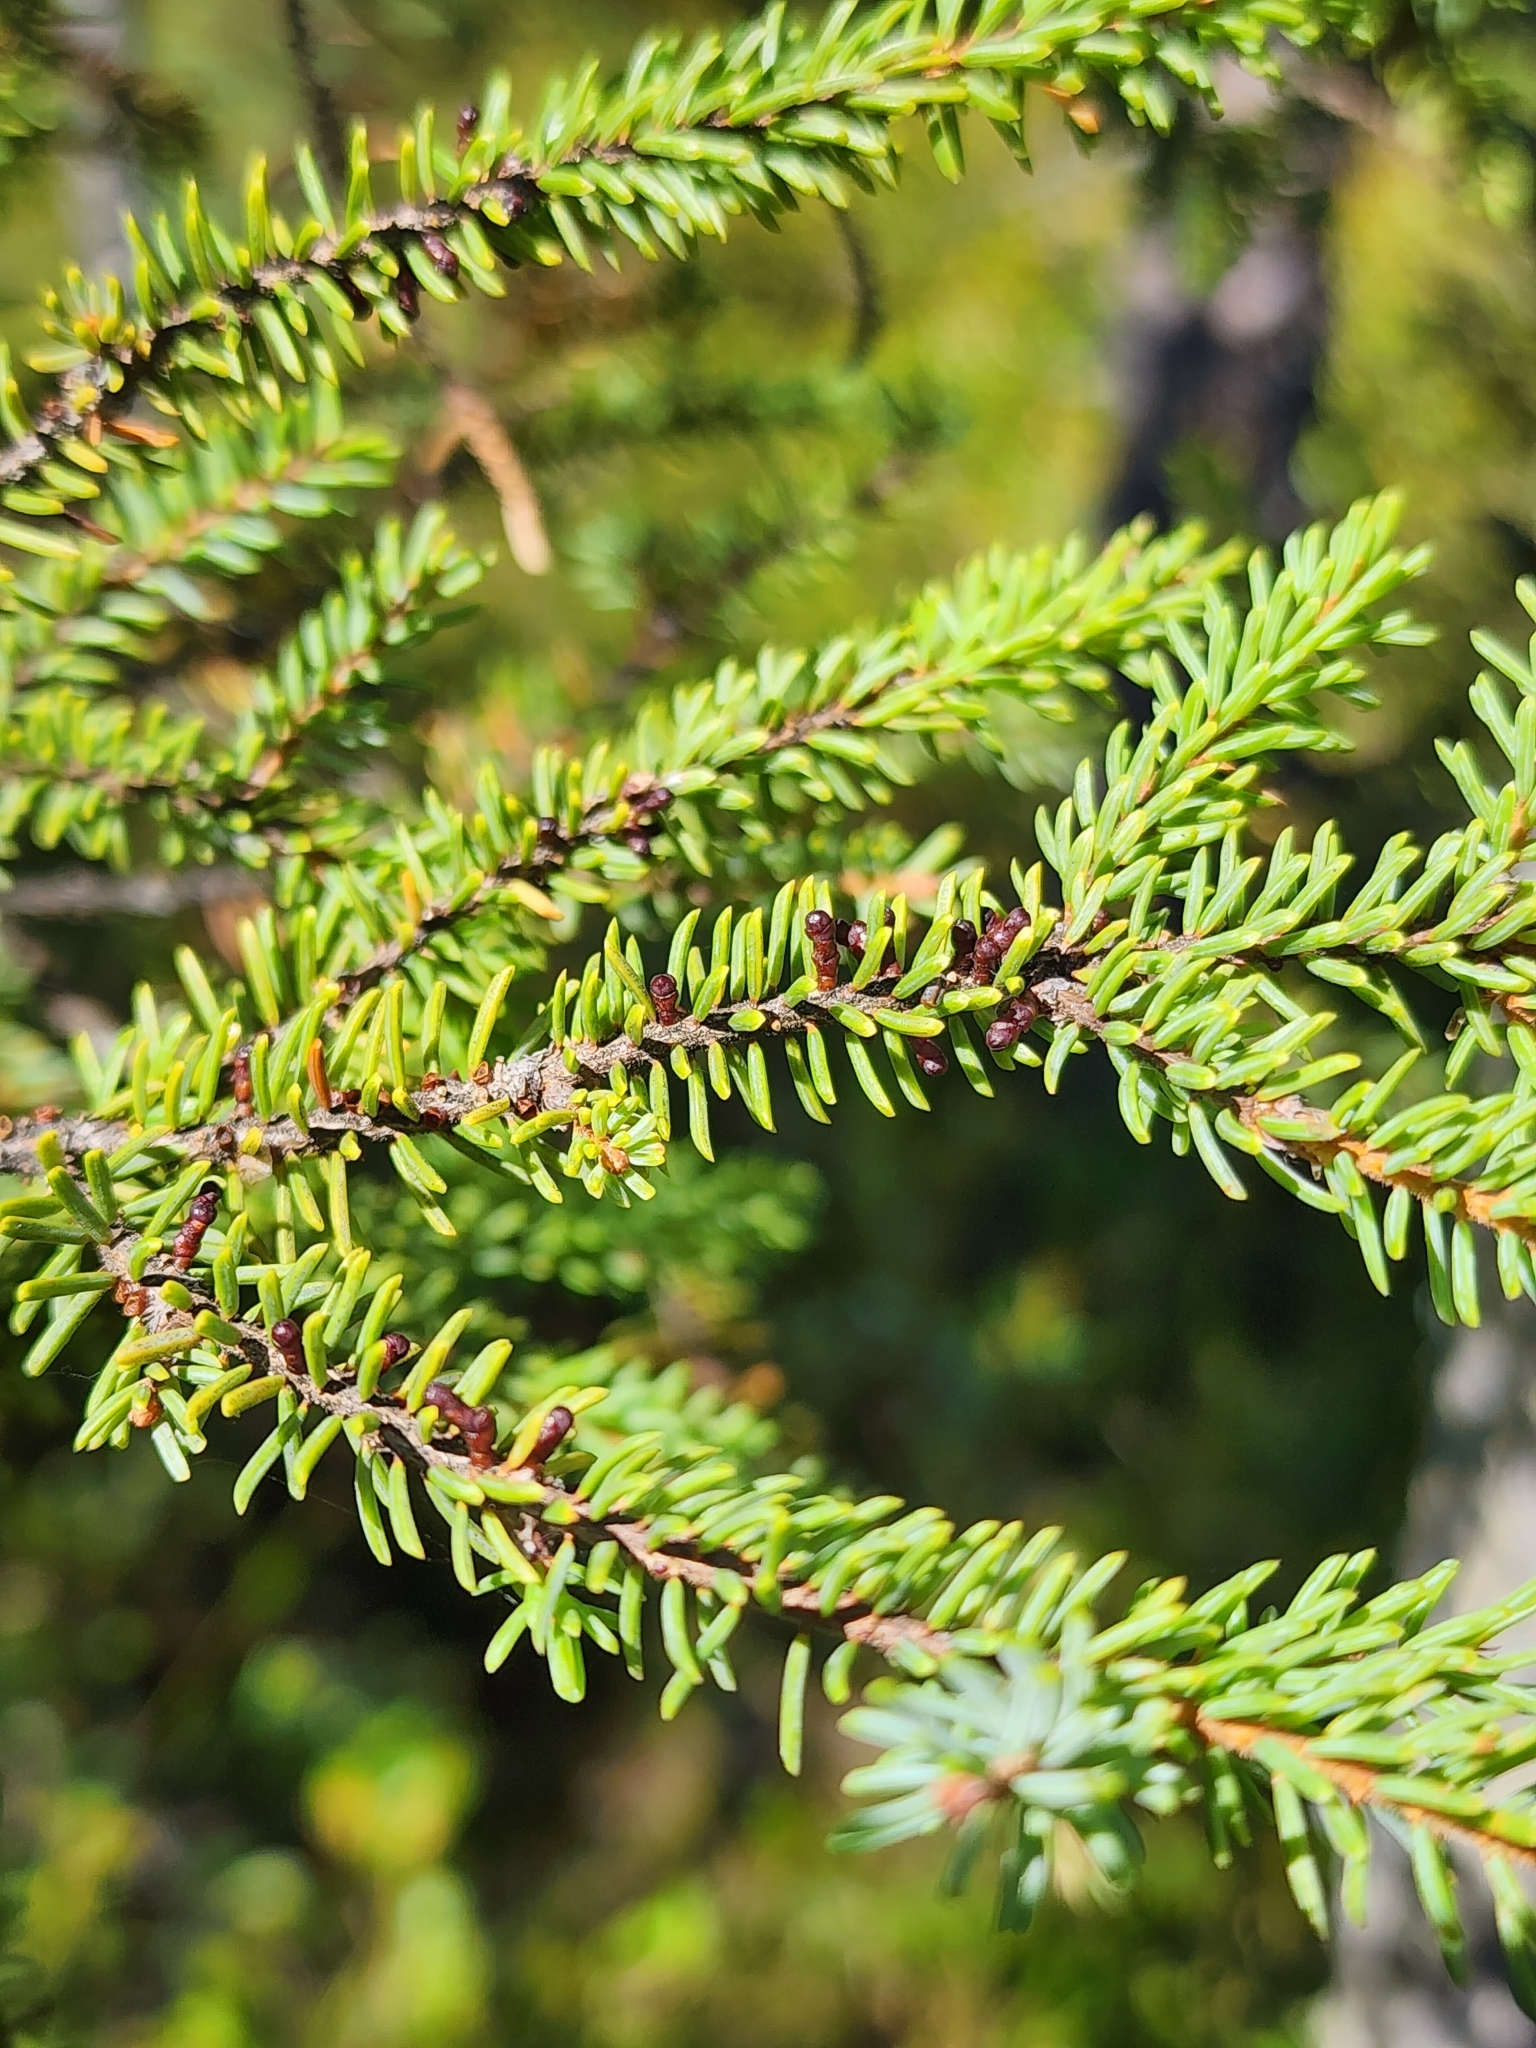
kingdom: Plantae
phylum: Tracheophyta
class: Magnoliopsida
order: Santalales
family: Viscaceae
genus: Arceuthobium
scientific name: Arceuthobium pusillum
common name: Dwarf-mistletoe
